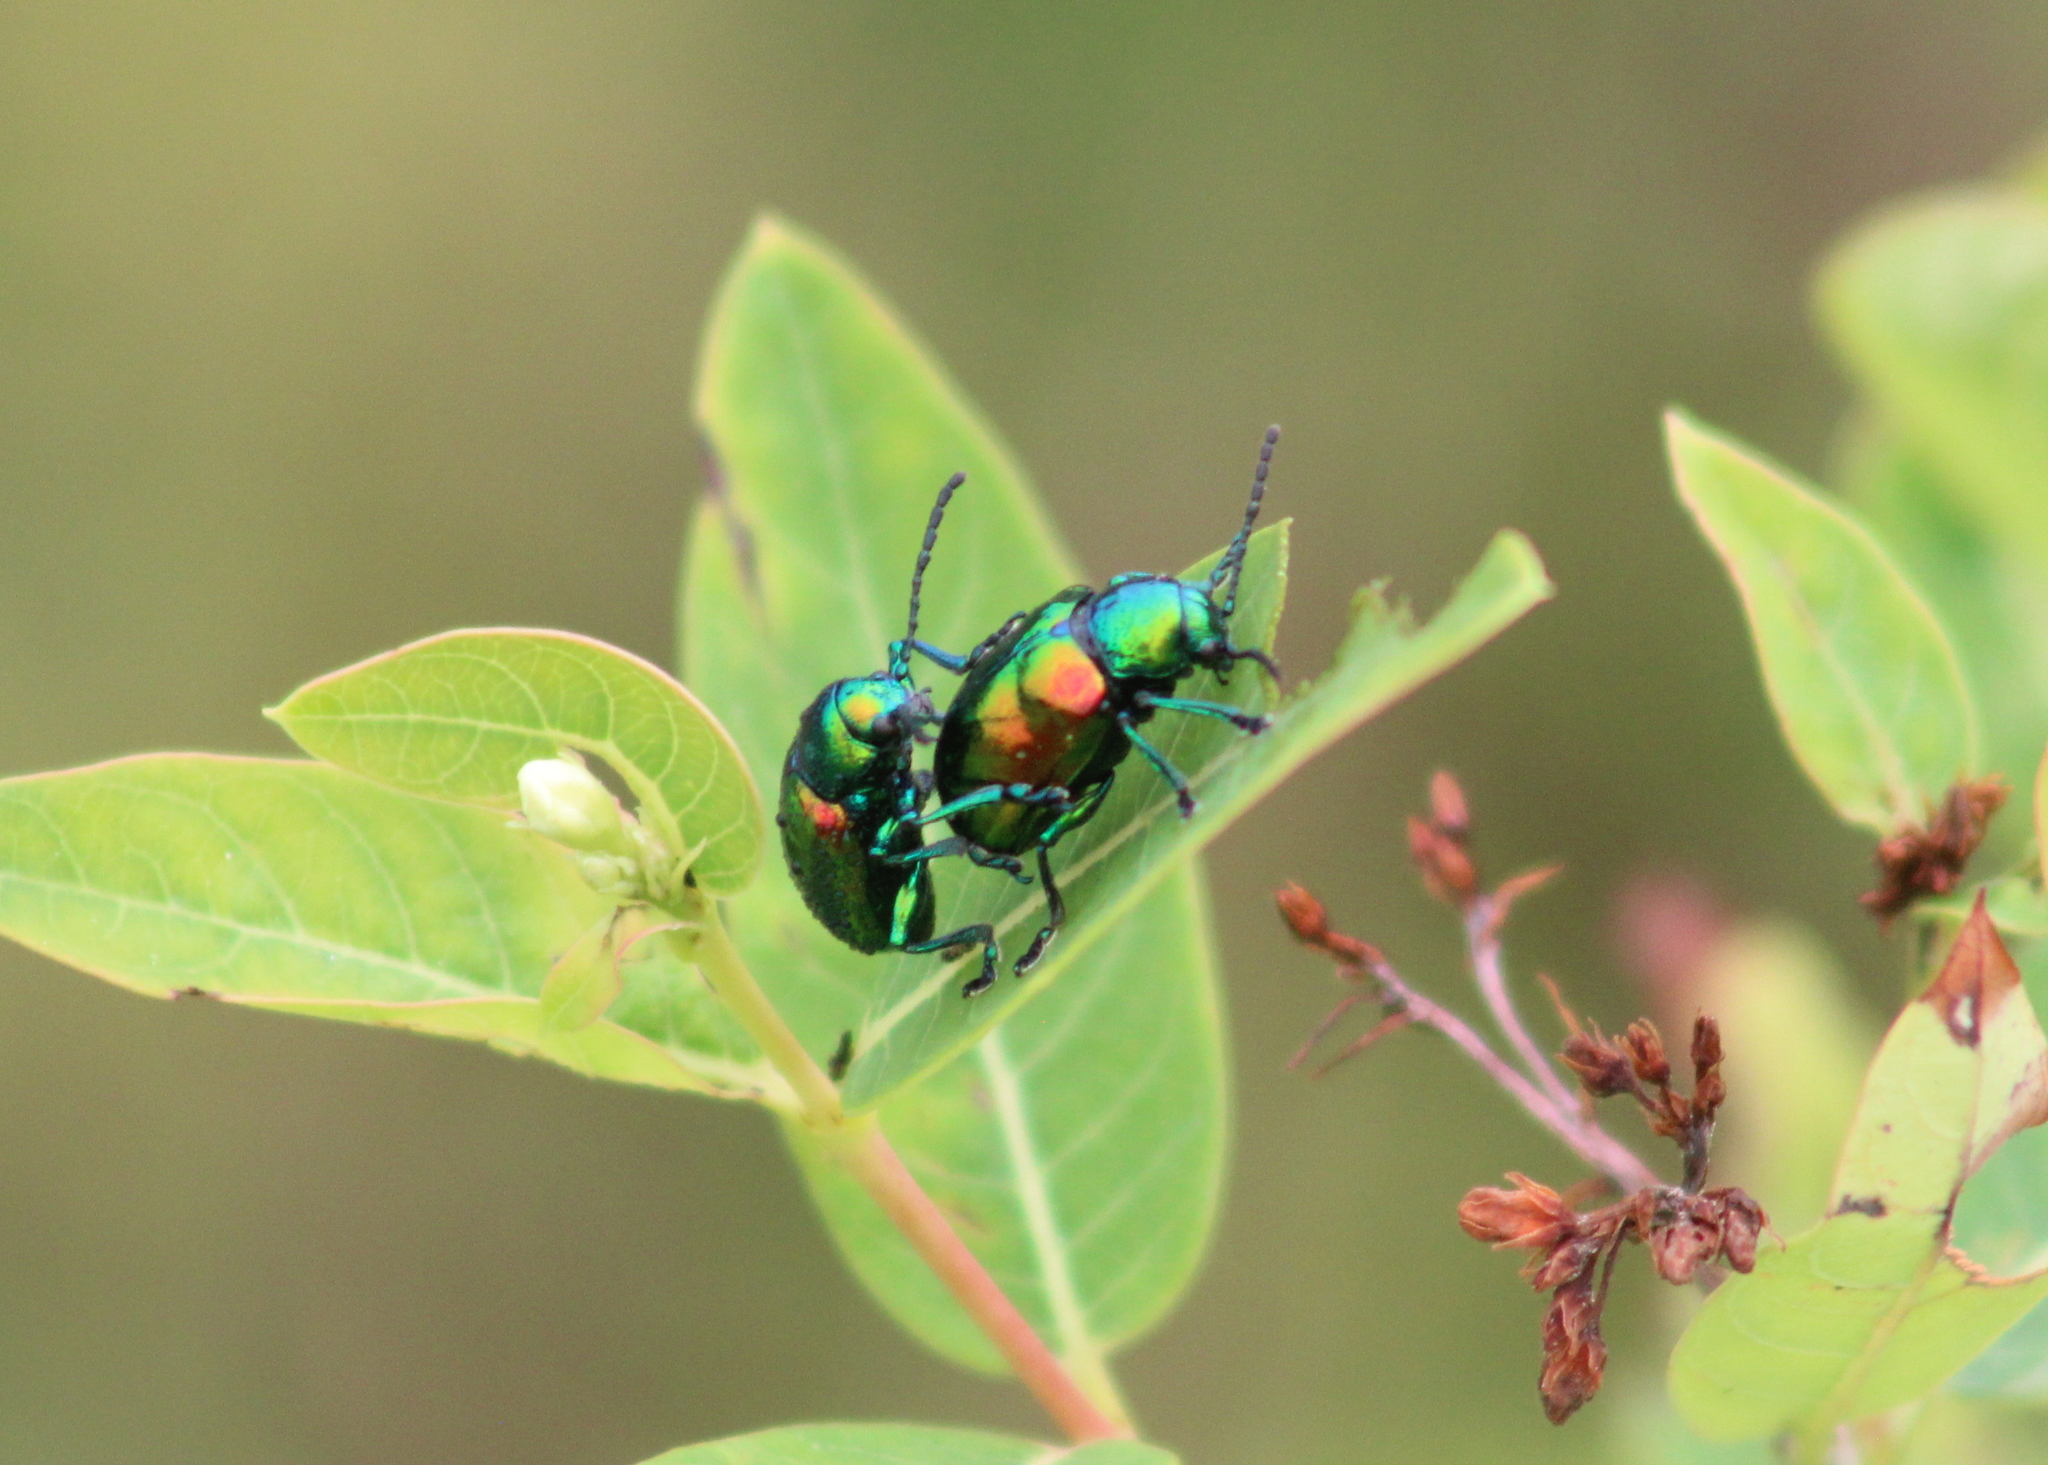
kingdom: Animalia
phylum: Arthropoda
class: Insecta
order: Coleoptera
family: Chrysomelidae
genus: Chrysochus
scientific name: Chrysochus auratus
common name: Dogbane leaf beetle
